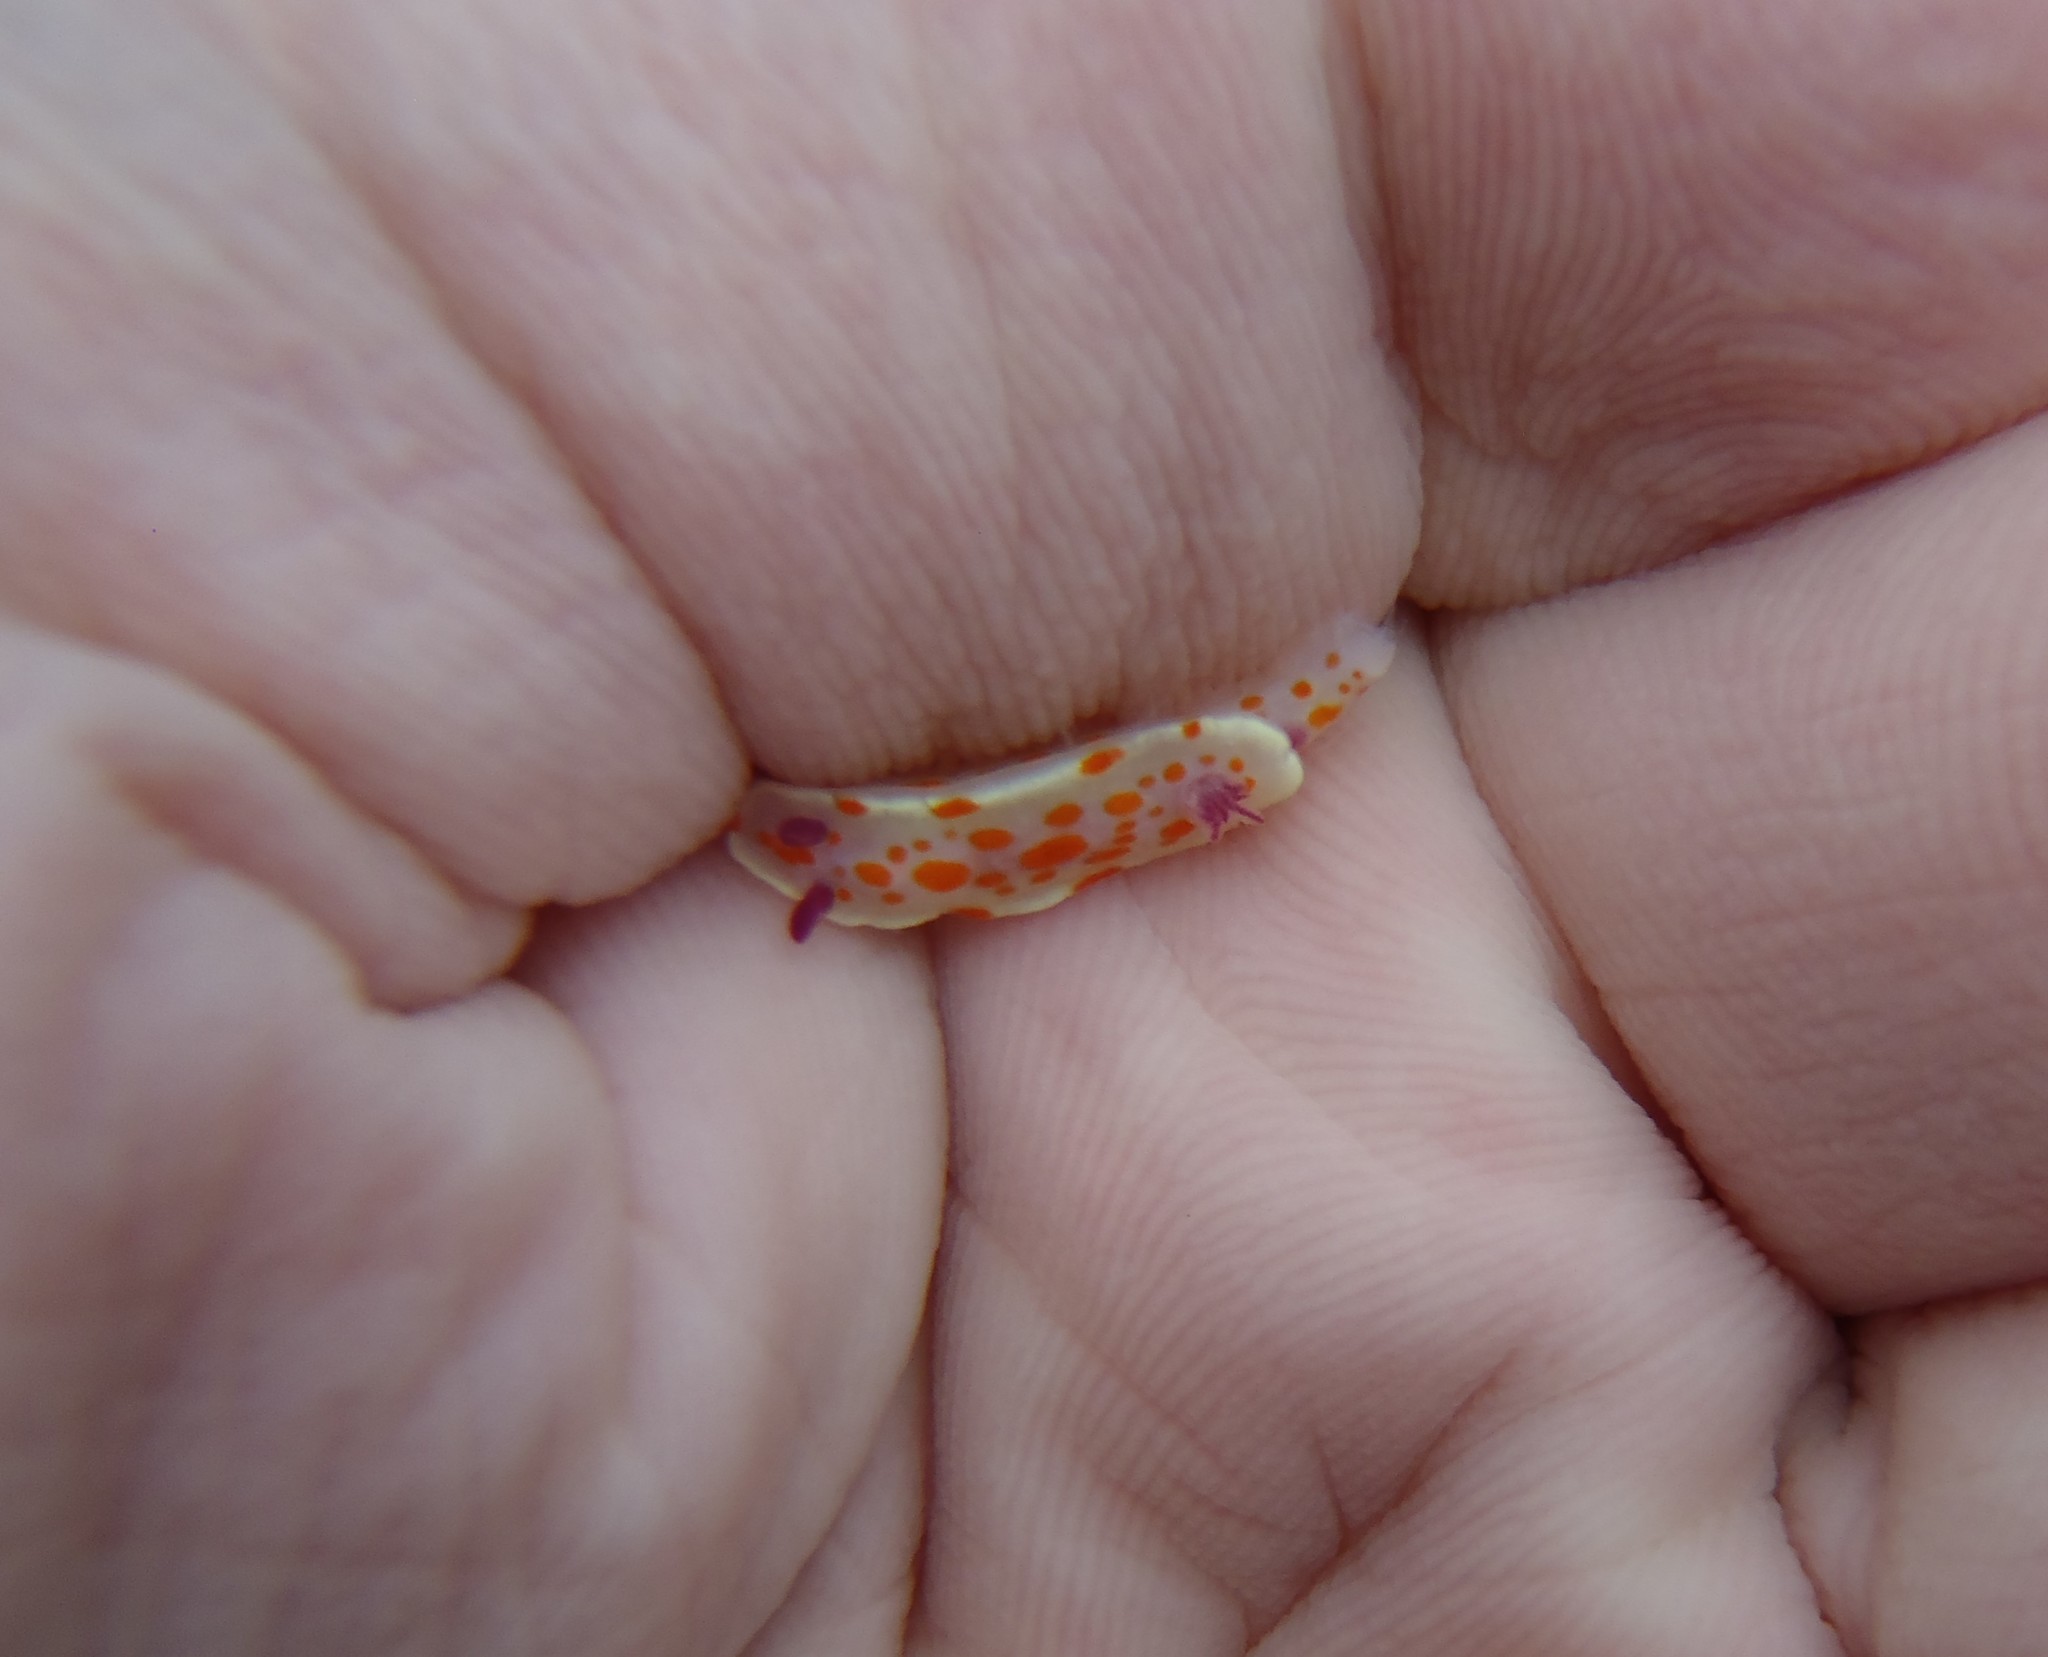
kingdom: Animalia
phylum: Mollusca
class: Gastropoda
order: Nudibranchia
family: Chromodorididae
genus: Ceratosoma
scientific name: Ceratosoma amoenum
